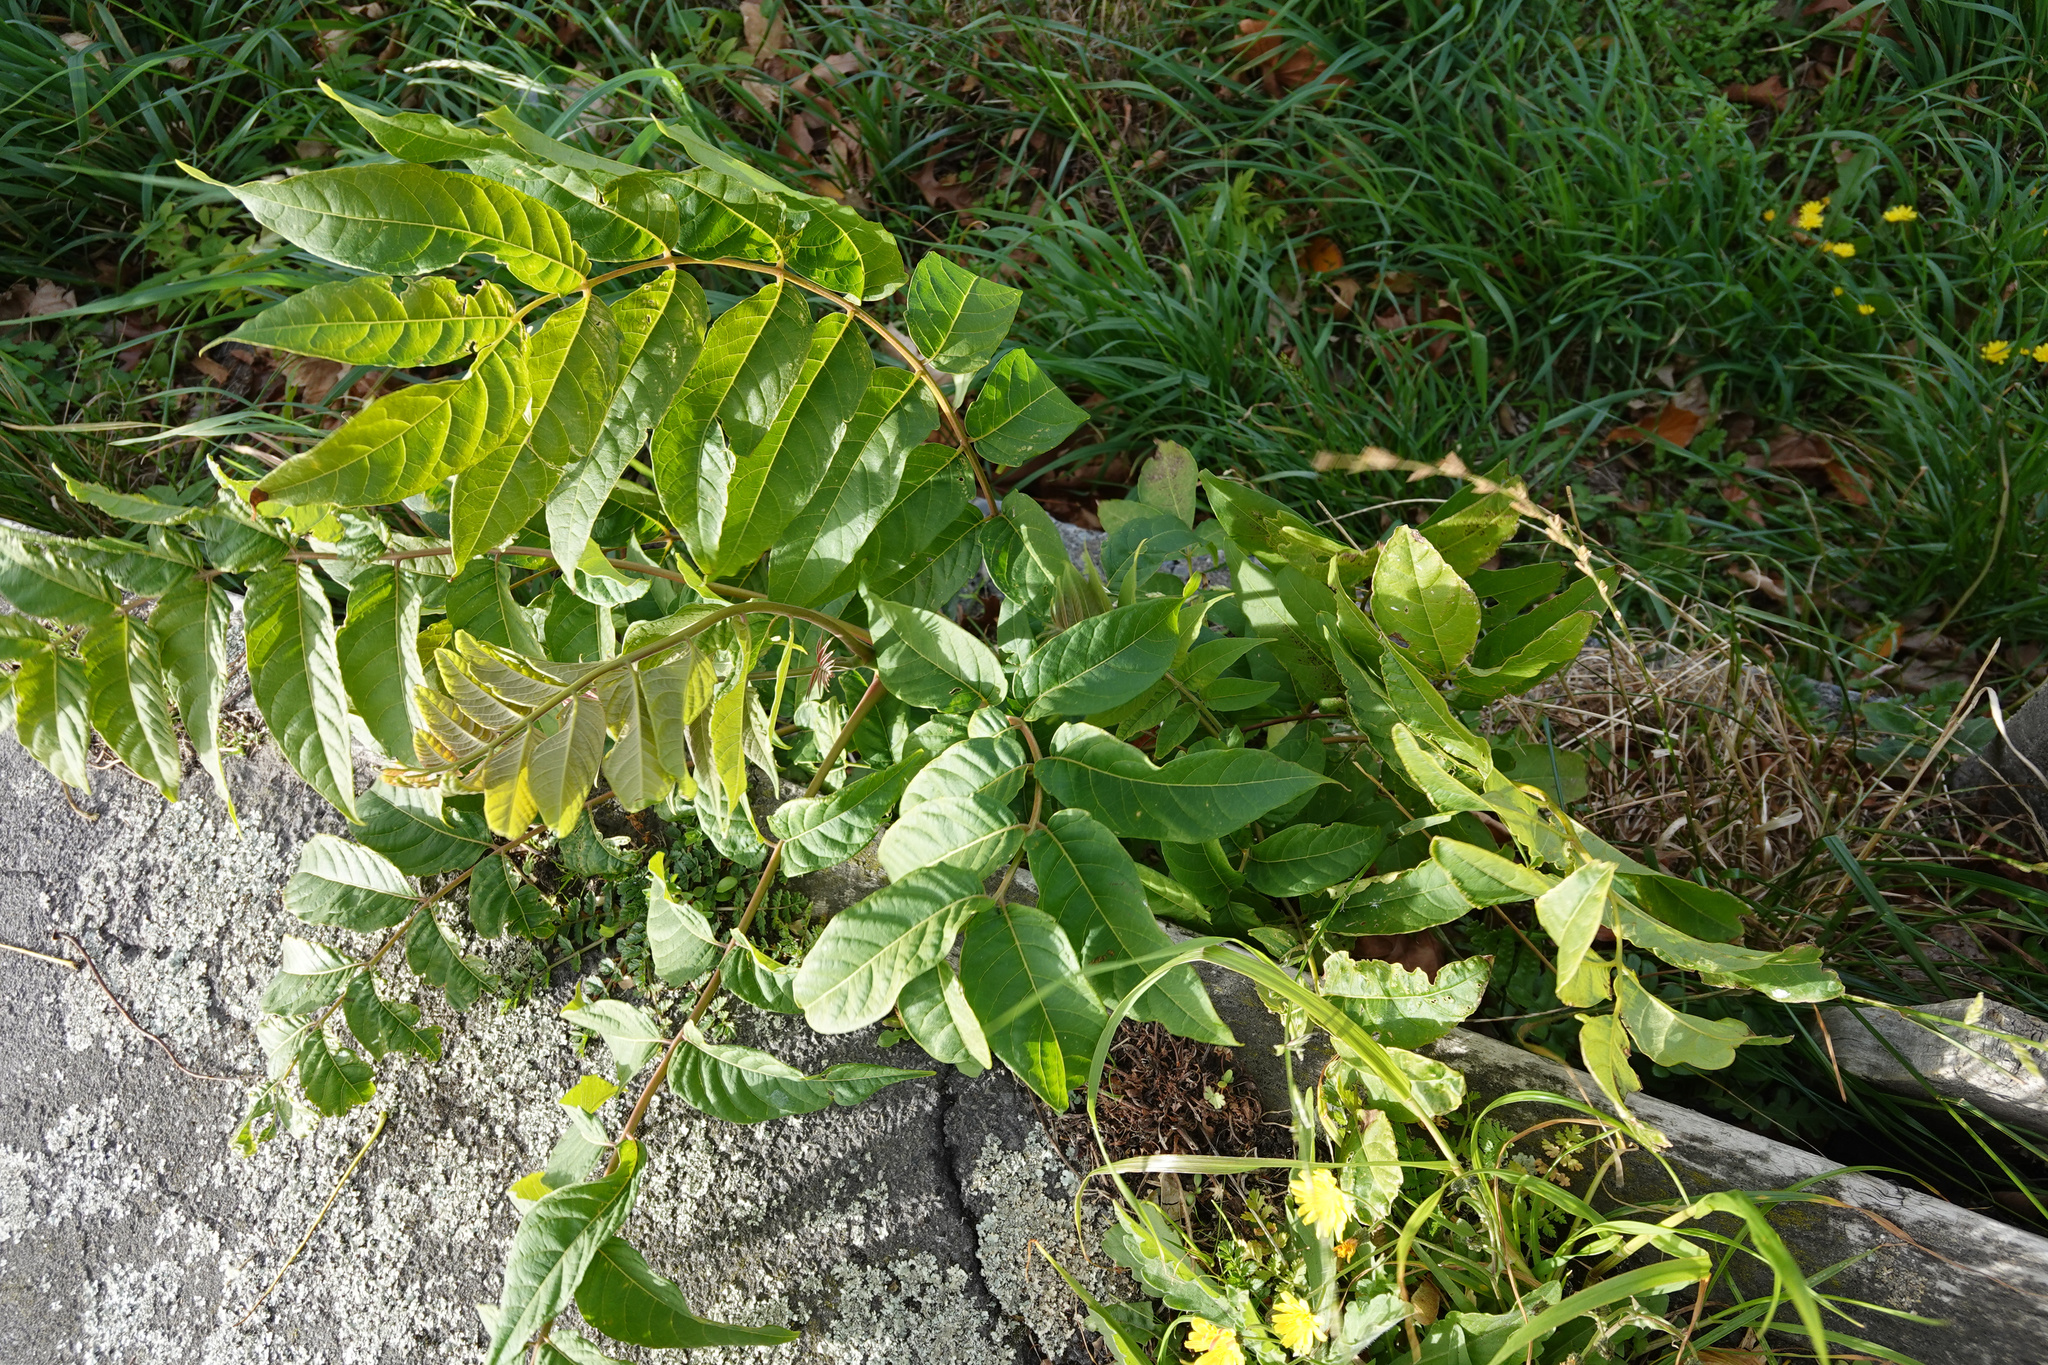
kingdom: Plantae
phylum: Tracheophyta
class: Magnoliopsida
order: Sapindales
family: Simaroubaceae
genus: Ailanthus
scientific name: Ailanthus altissima
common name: Tree-of-heaven
